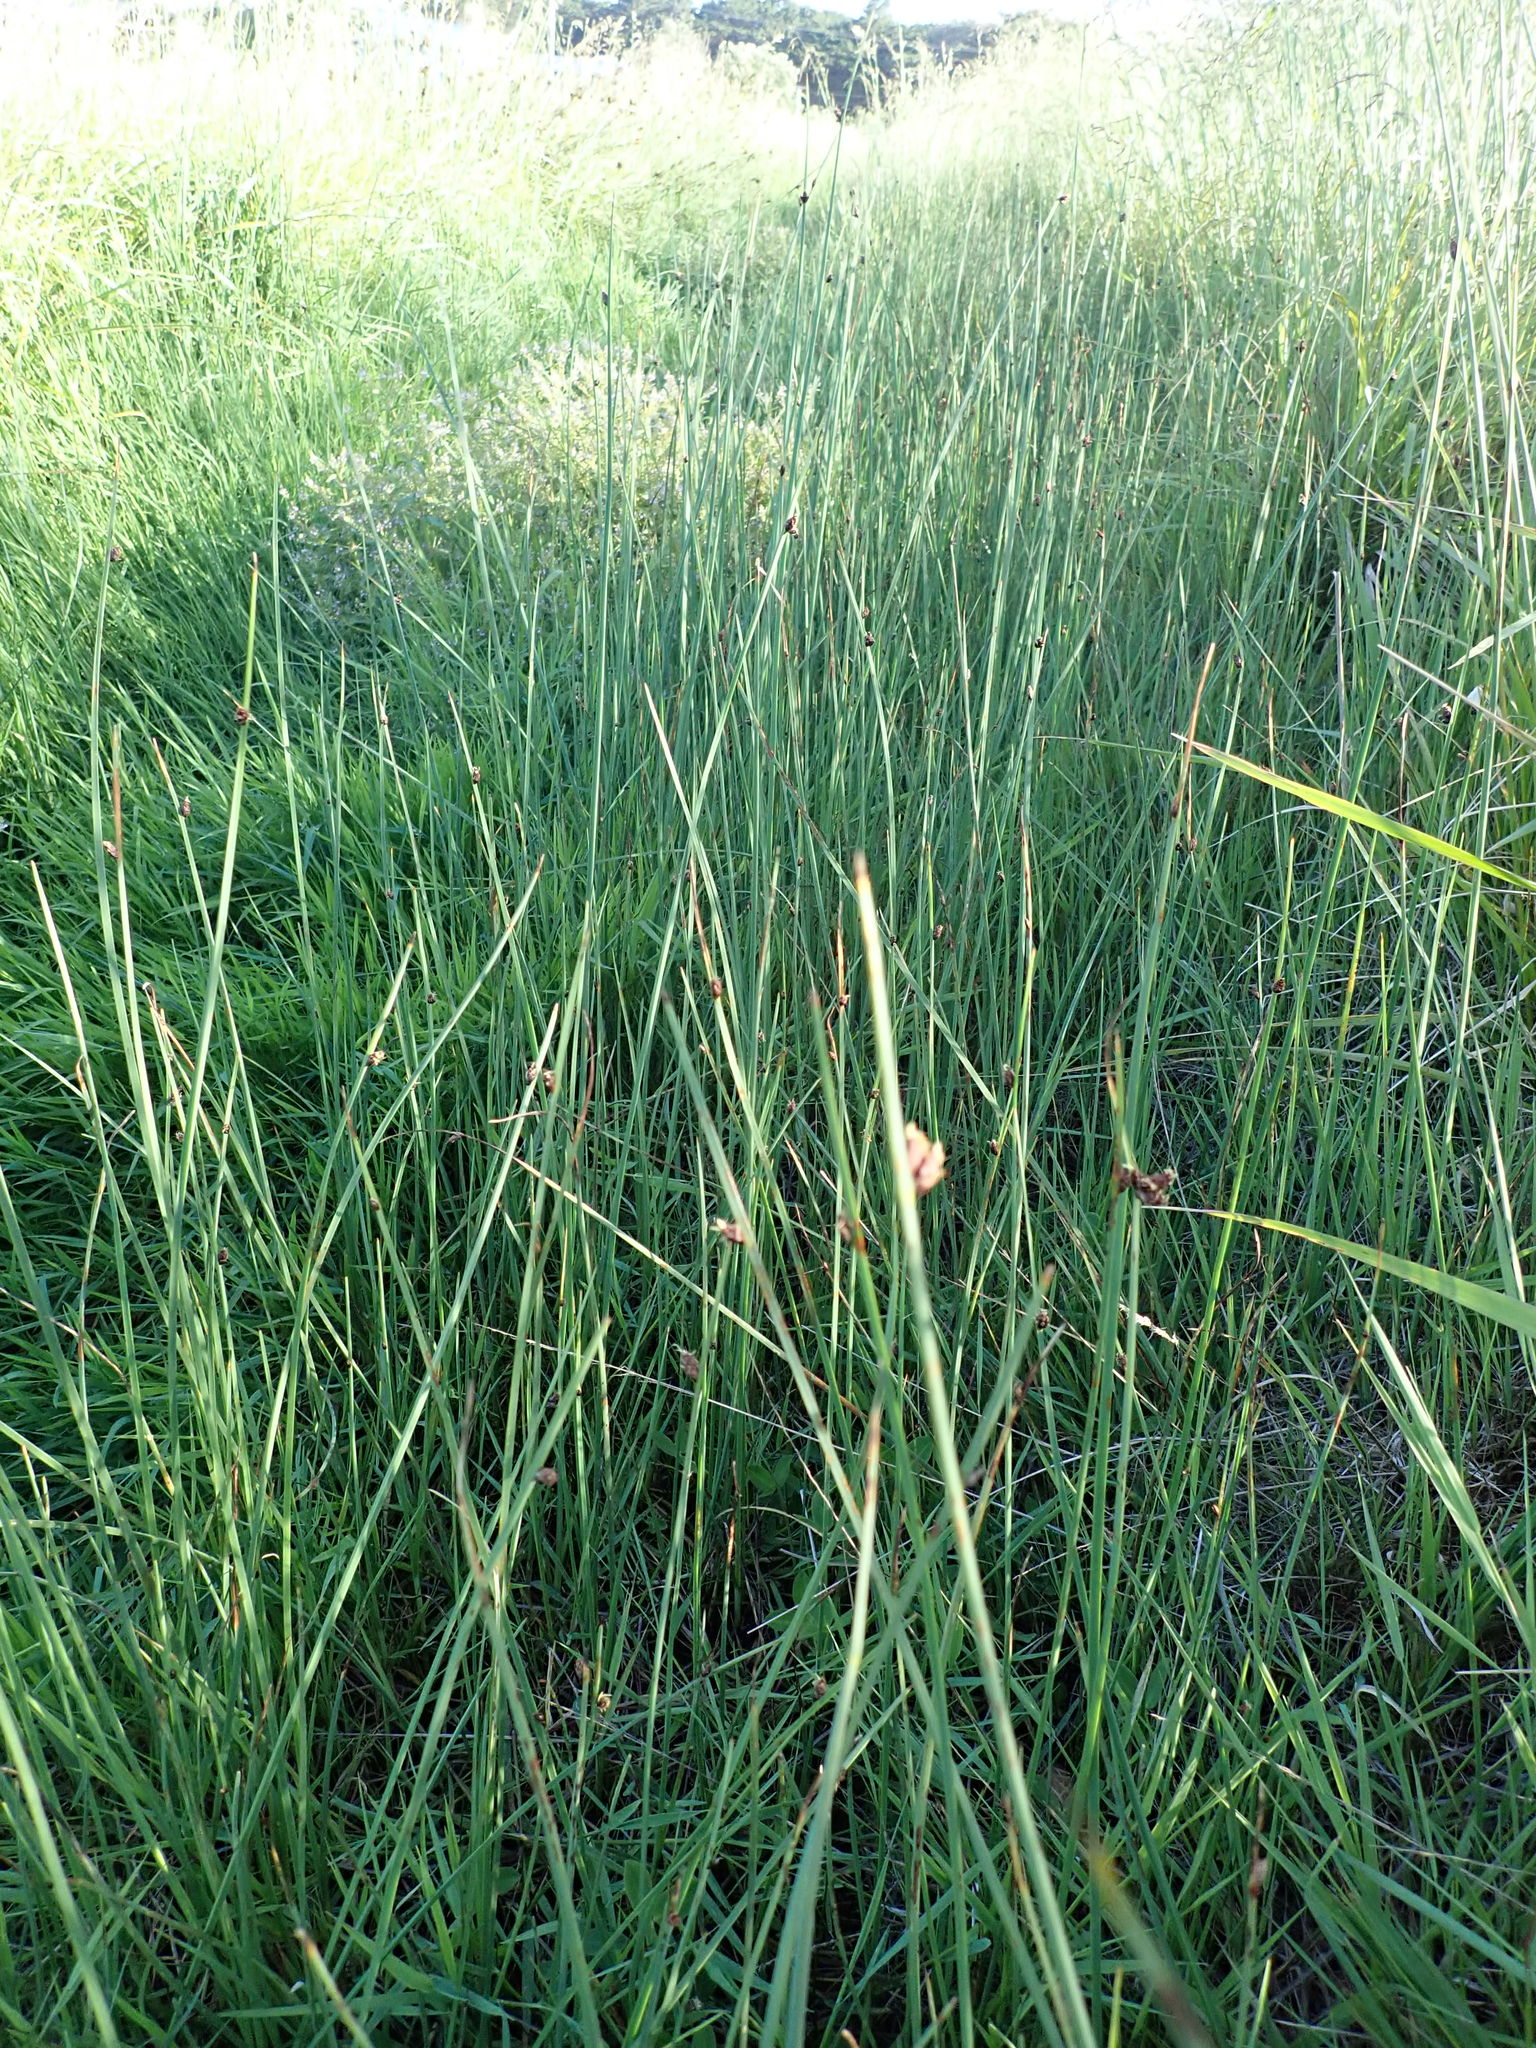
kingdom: Plantae
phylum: Tracheophyta
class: Liliopsida
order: Poales
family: Cyperaceae
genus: Schoenoplectus
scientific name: Schoenoplectus pungens
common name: Sharp club-rush
